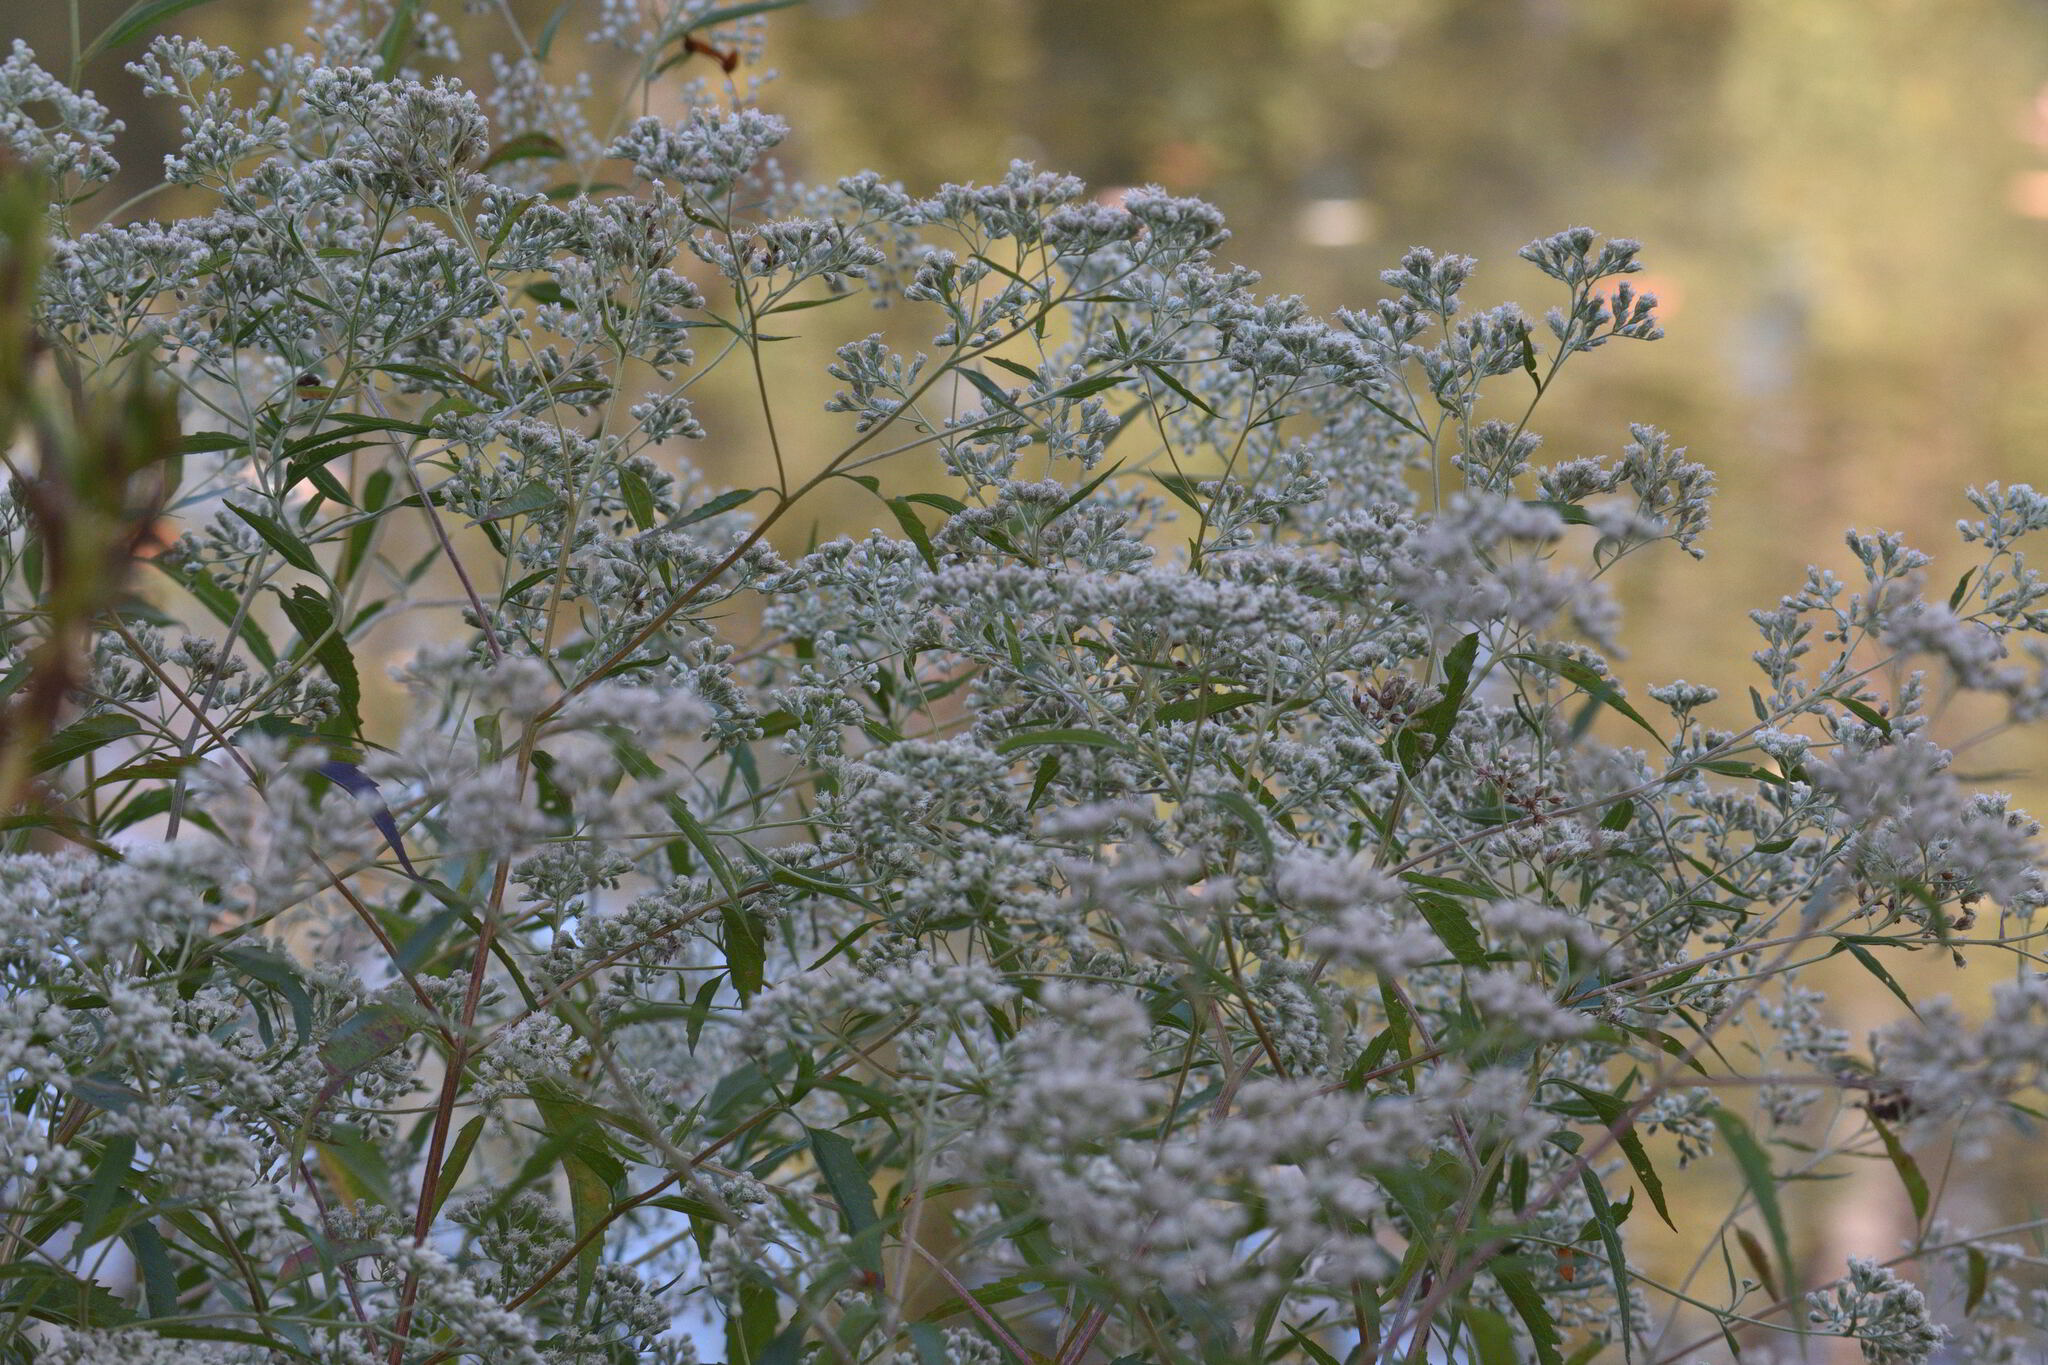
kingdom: Plantae
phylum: Tracheophyta
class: Magnoliopsida
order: Asterales
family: Asteraceae
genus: Eupatorium
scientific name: Eupatorium serotinum
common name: Late boneset
